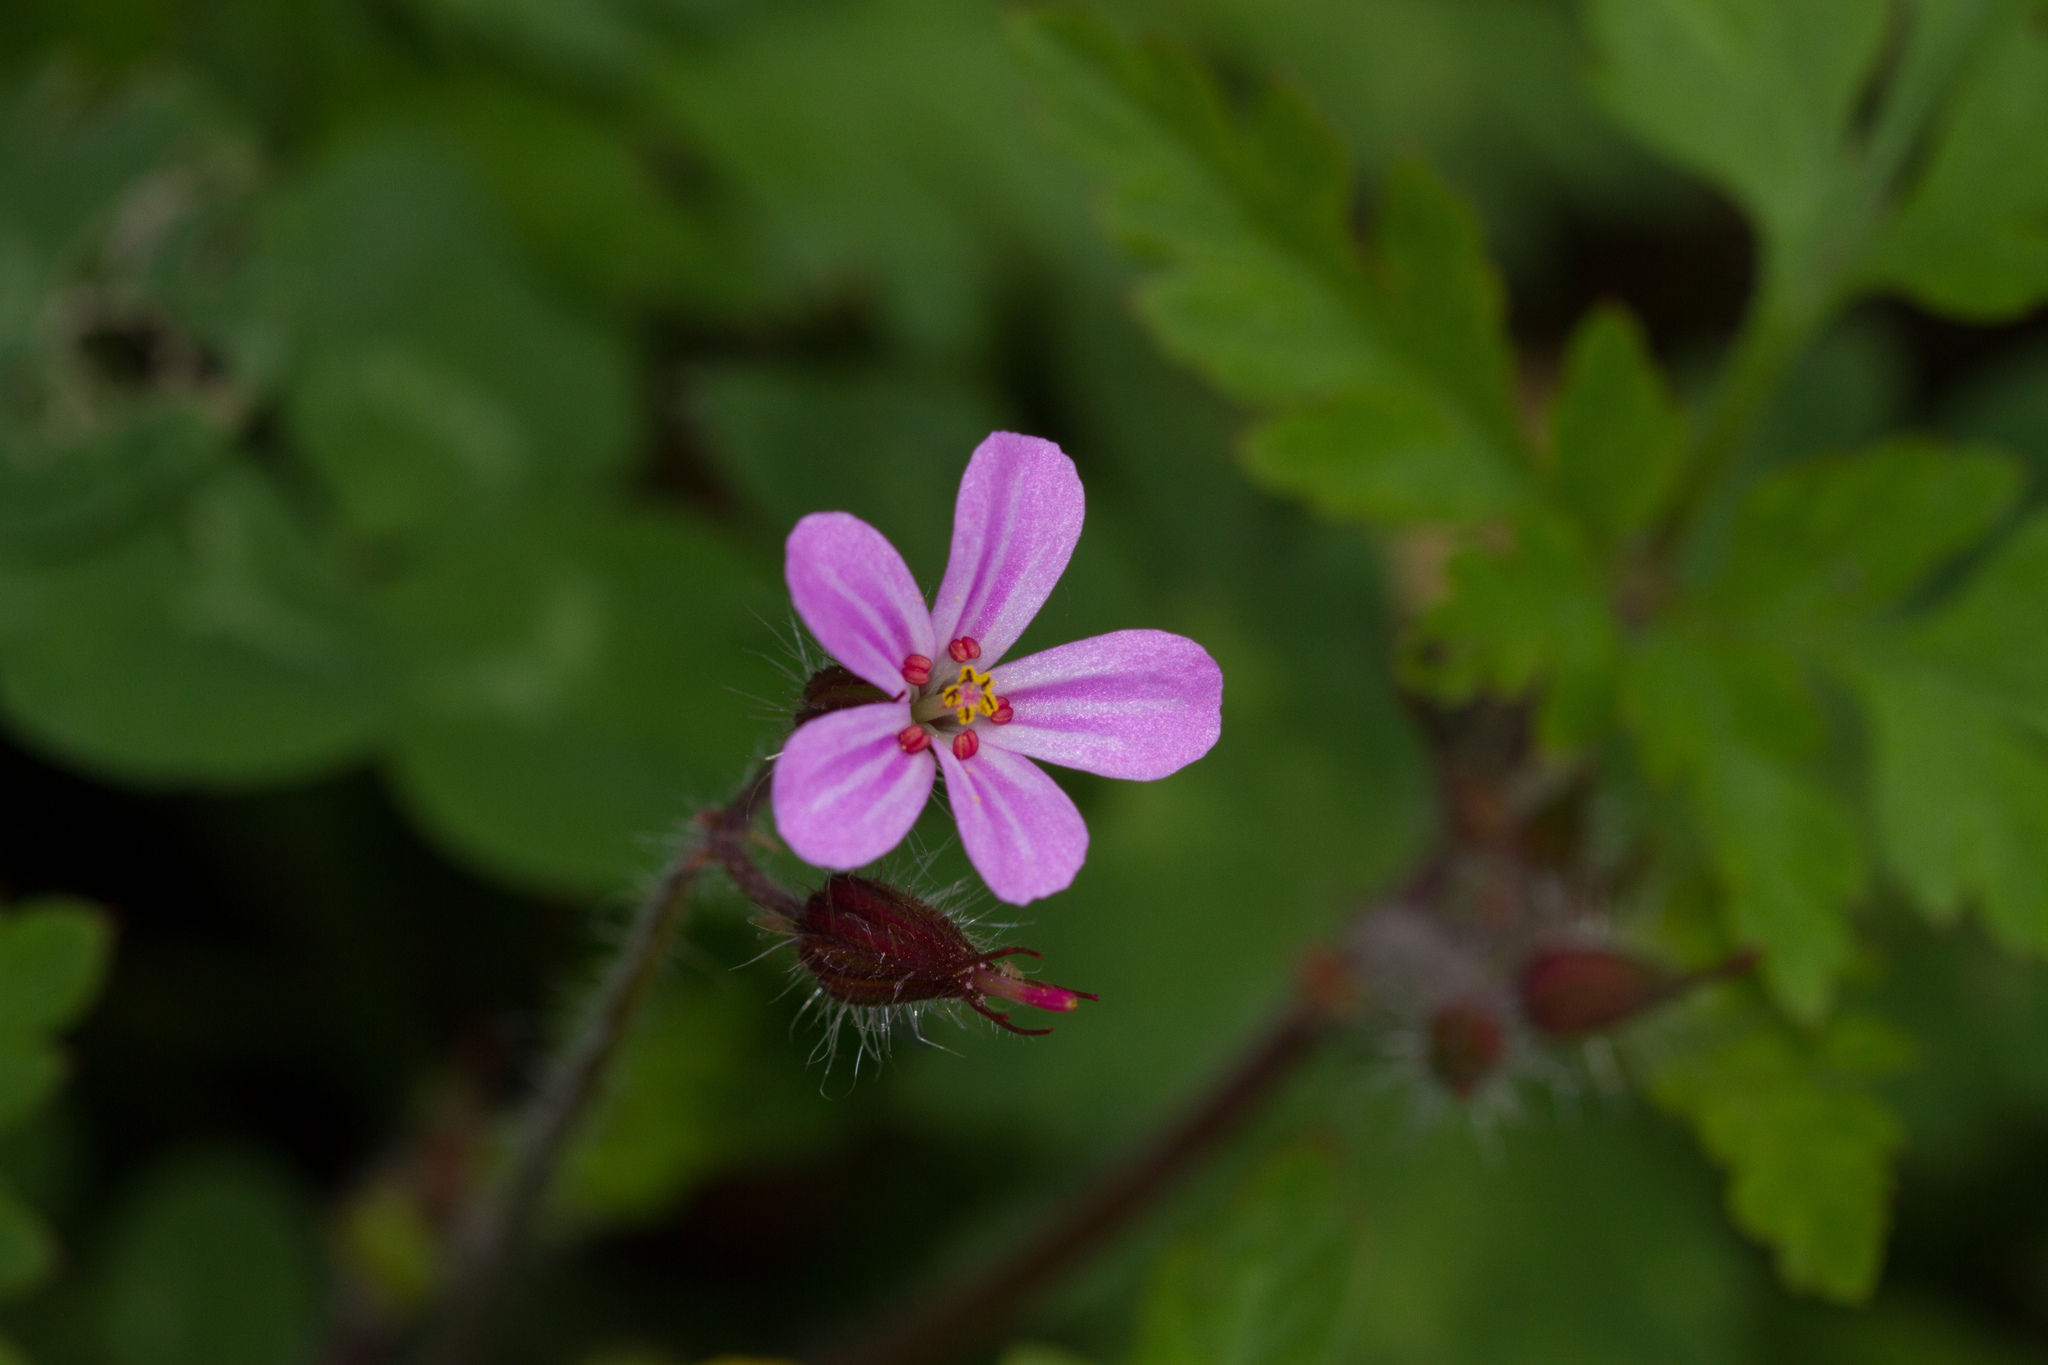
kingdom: Plantae
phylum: Tracheophyta
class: Magnoliopsida
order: Geraniales
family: Geraniaceae
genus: Geranium
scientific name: Geranium robertianum
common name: Herb-robert
